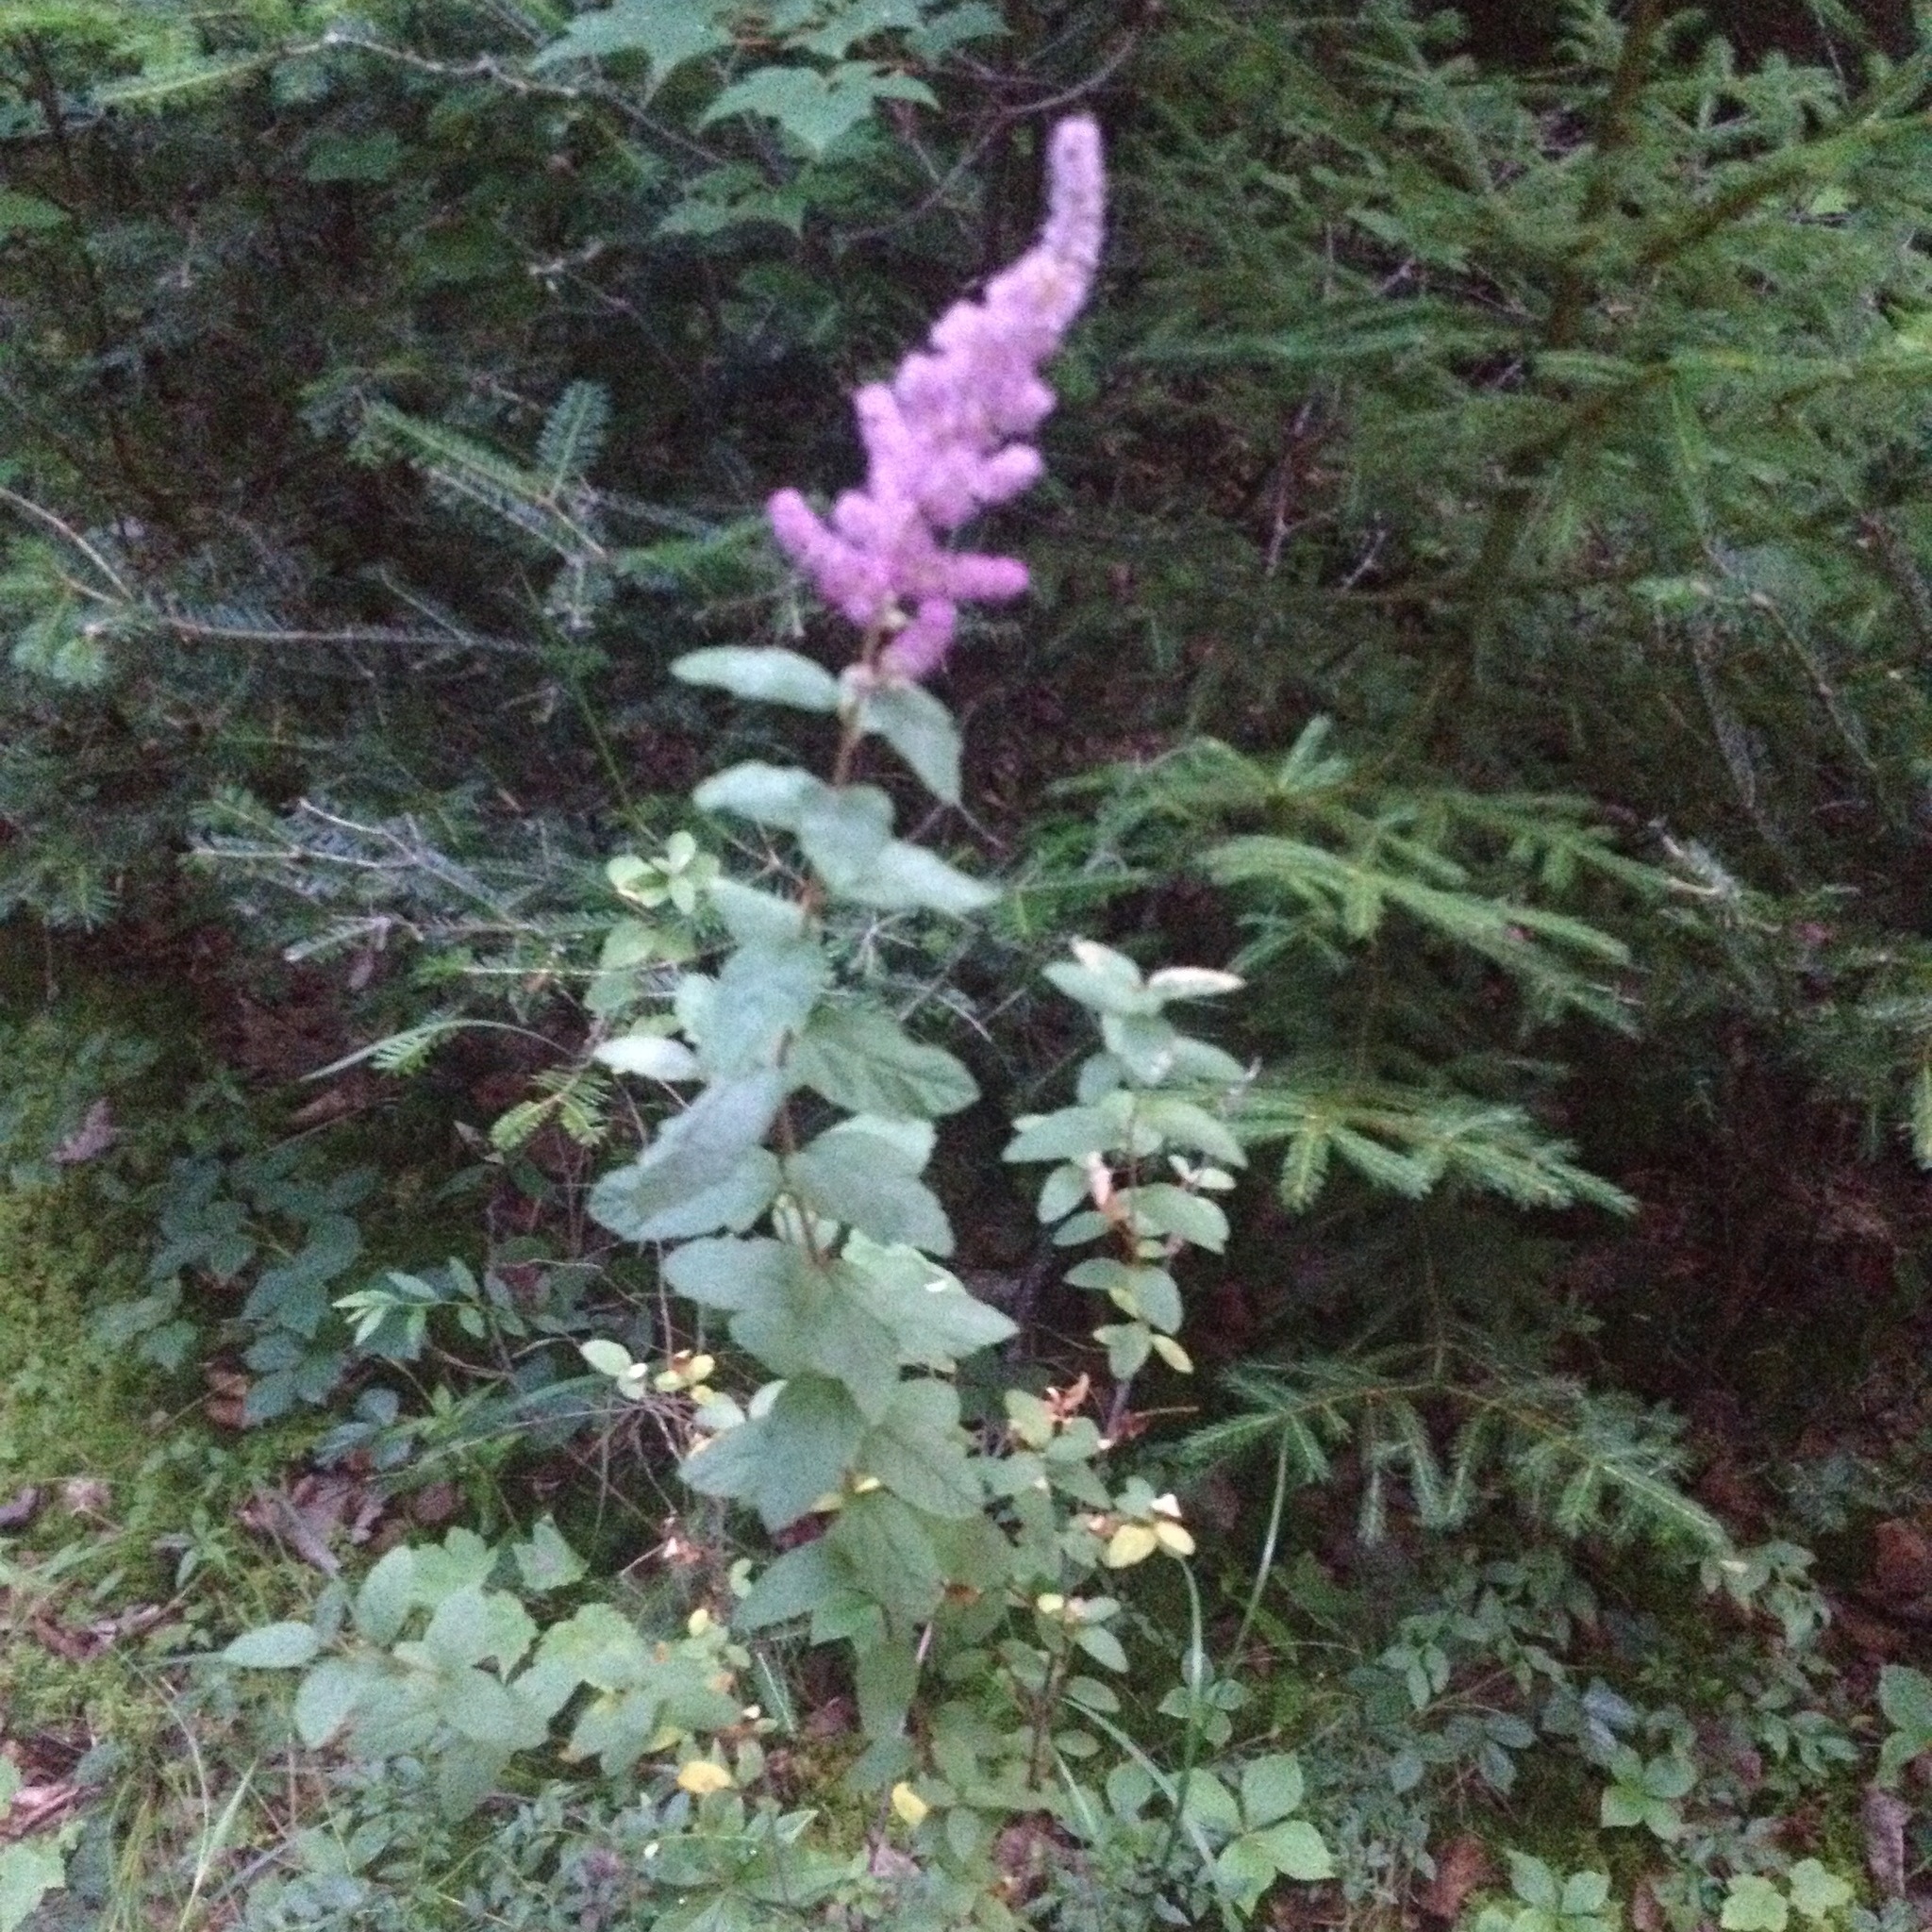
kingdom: Plantae
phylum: Tracheophyta
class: Magnoliopsida
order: Rosales
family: Rosaceae
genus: Spiraea
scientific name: Spiraea tomentosa
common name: Hardhack
